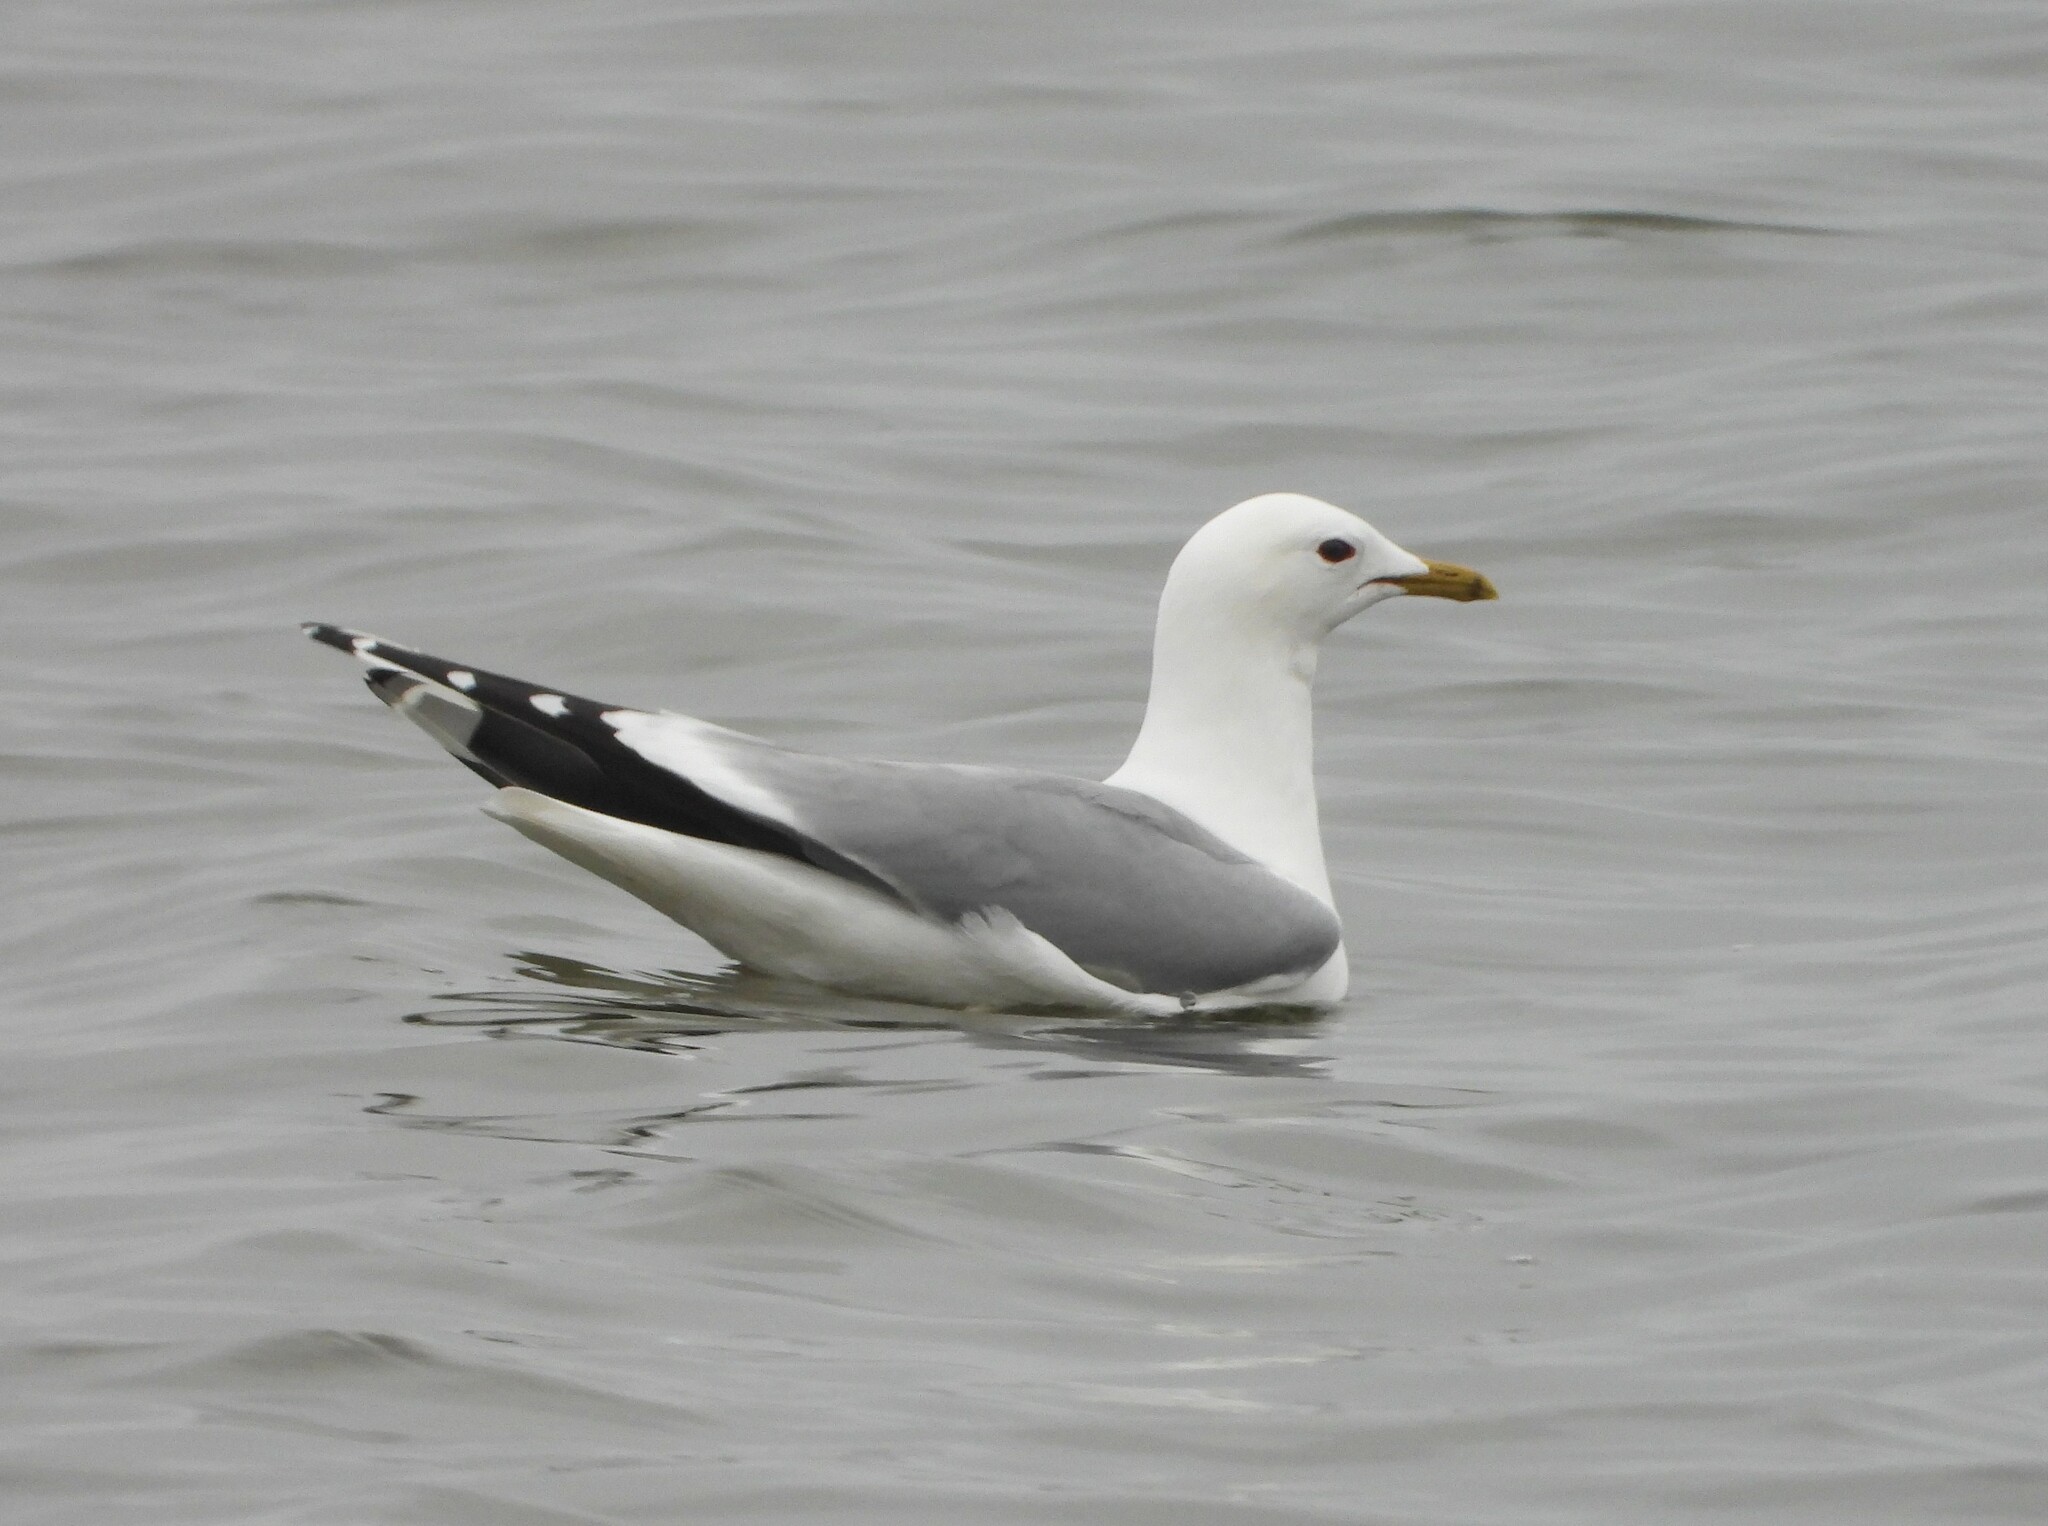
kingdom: Animalia
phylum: Chordata
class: Aves
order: Charadriiformes
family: Laridae
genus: Larus
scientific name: Larus canus
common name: Mew gull
